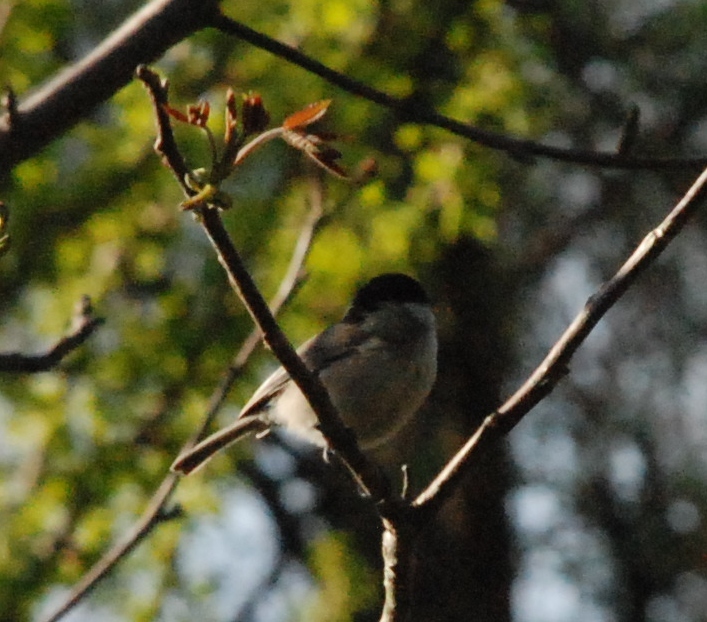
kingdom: Animalia
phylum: Chordata
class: Aves
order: Passeriformes
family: Paridae
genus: Poecile
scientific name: Poecile palustris
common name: Marsh tit
